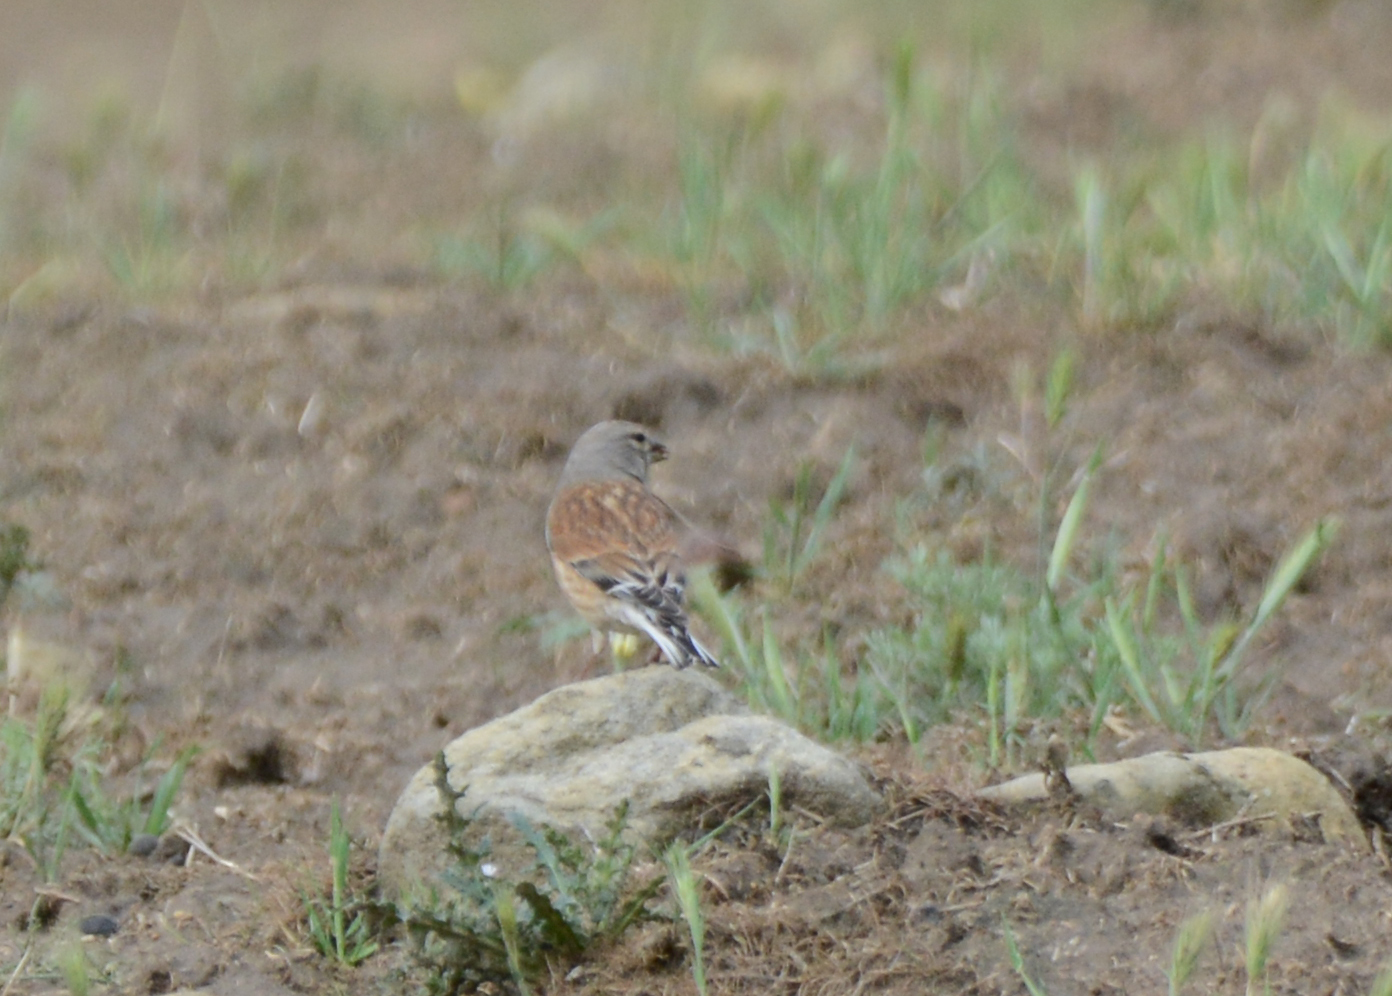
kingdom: Animalia
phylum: Chordata
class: Aves
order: Passeriformes
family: Fringillidae
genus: Linaria
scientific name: Linaria cannabina
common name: Common linnet
